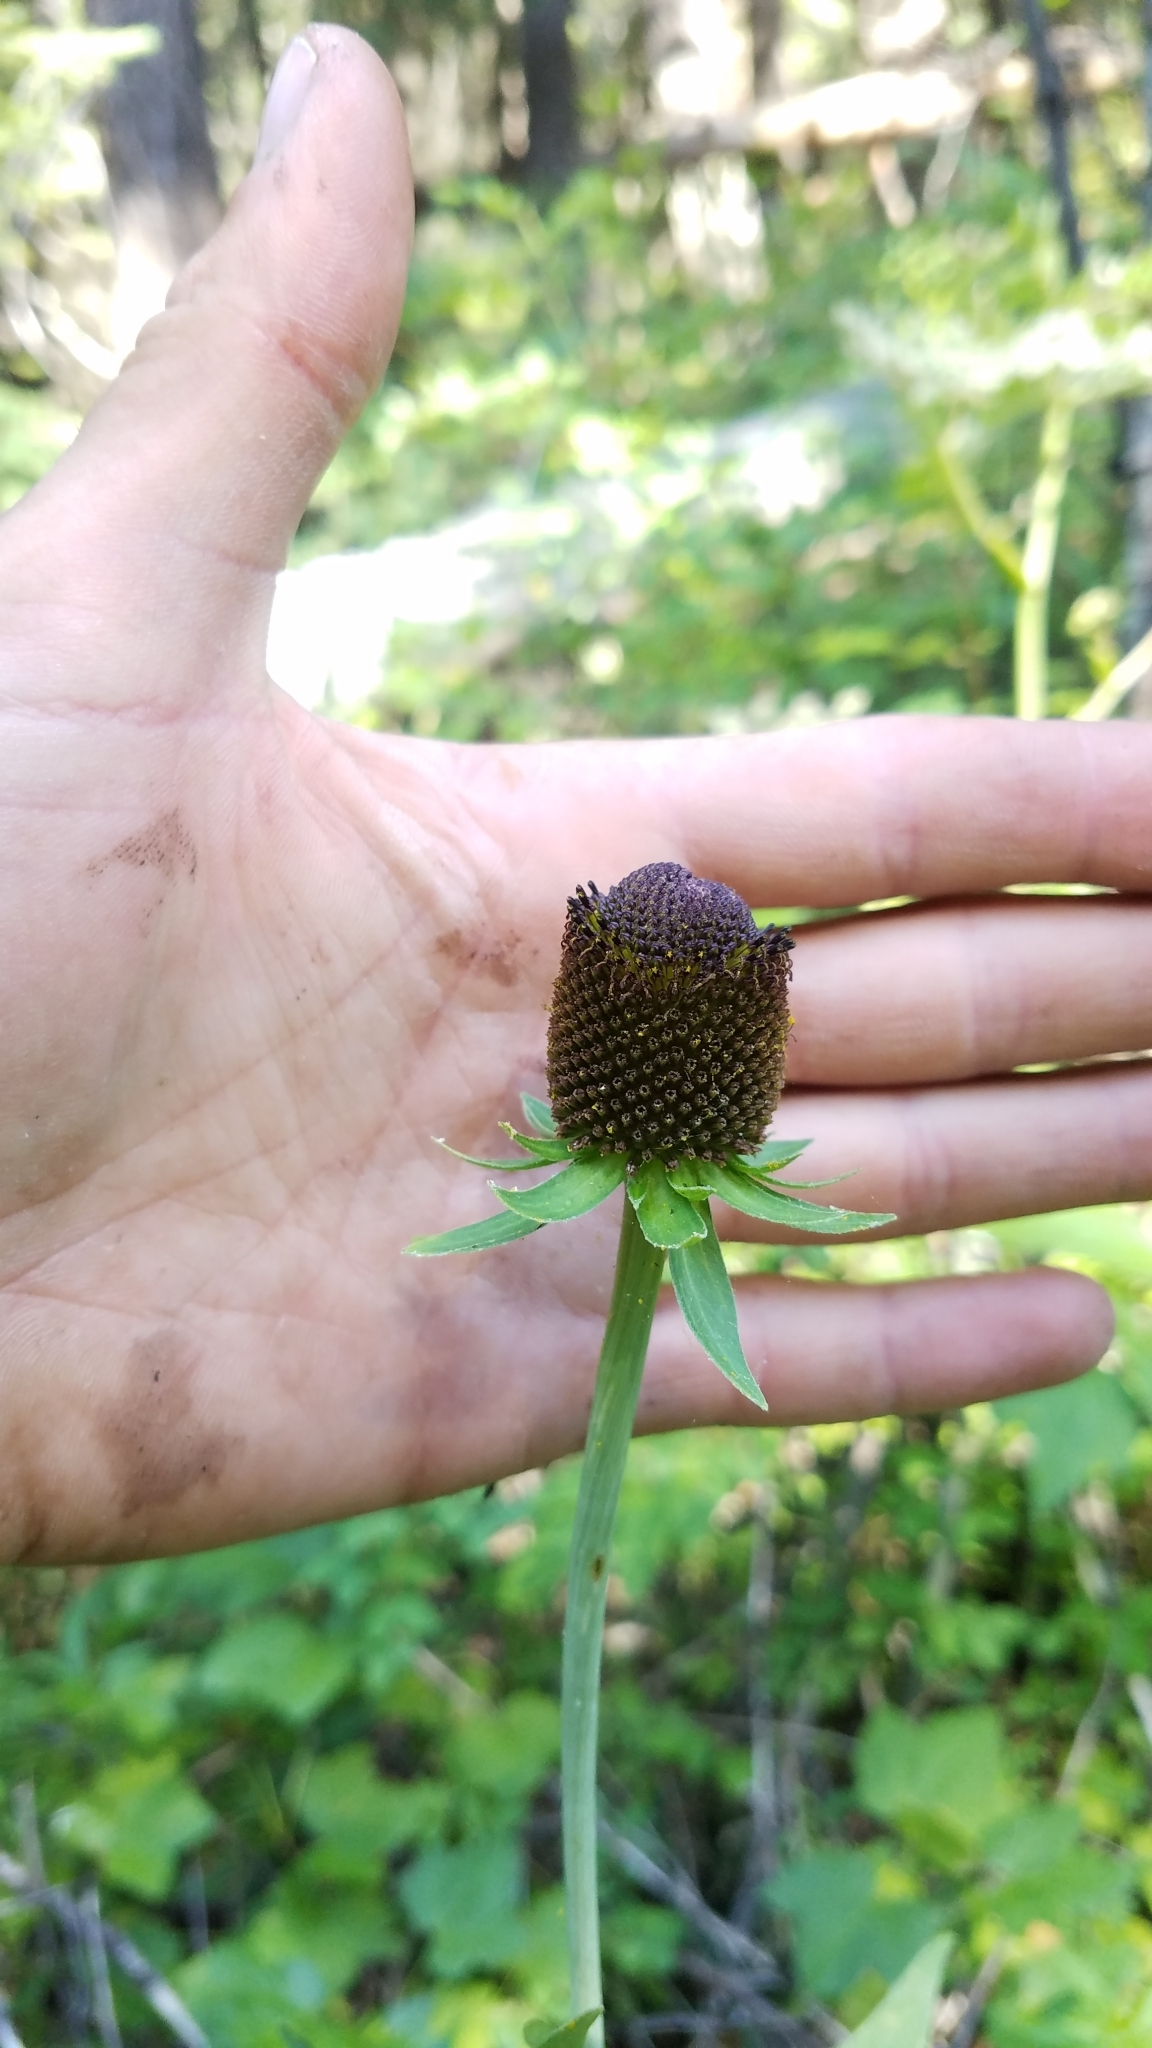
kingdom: Plantae
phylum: Tracheophyta
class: Magnoliopsida
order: Asterales
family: Asteraceae
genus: Rudbeckia
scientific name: Rudbeckia occidentalis
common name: Western coneflower
